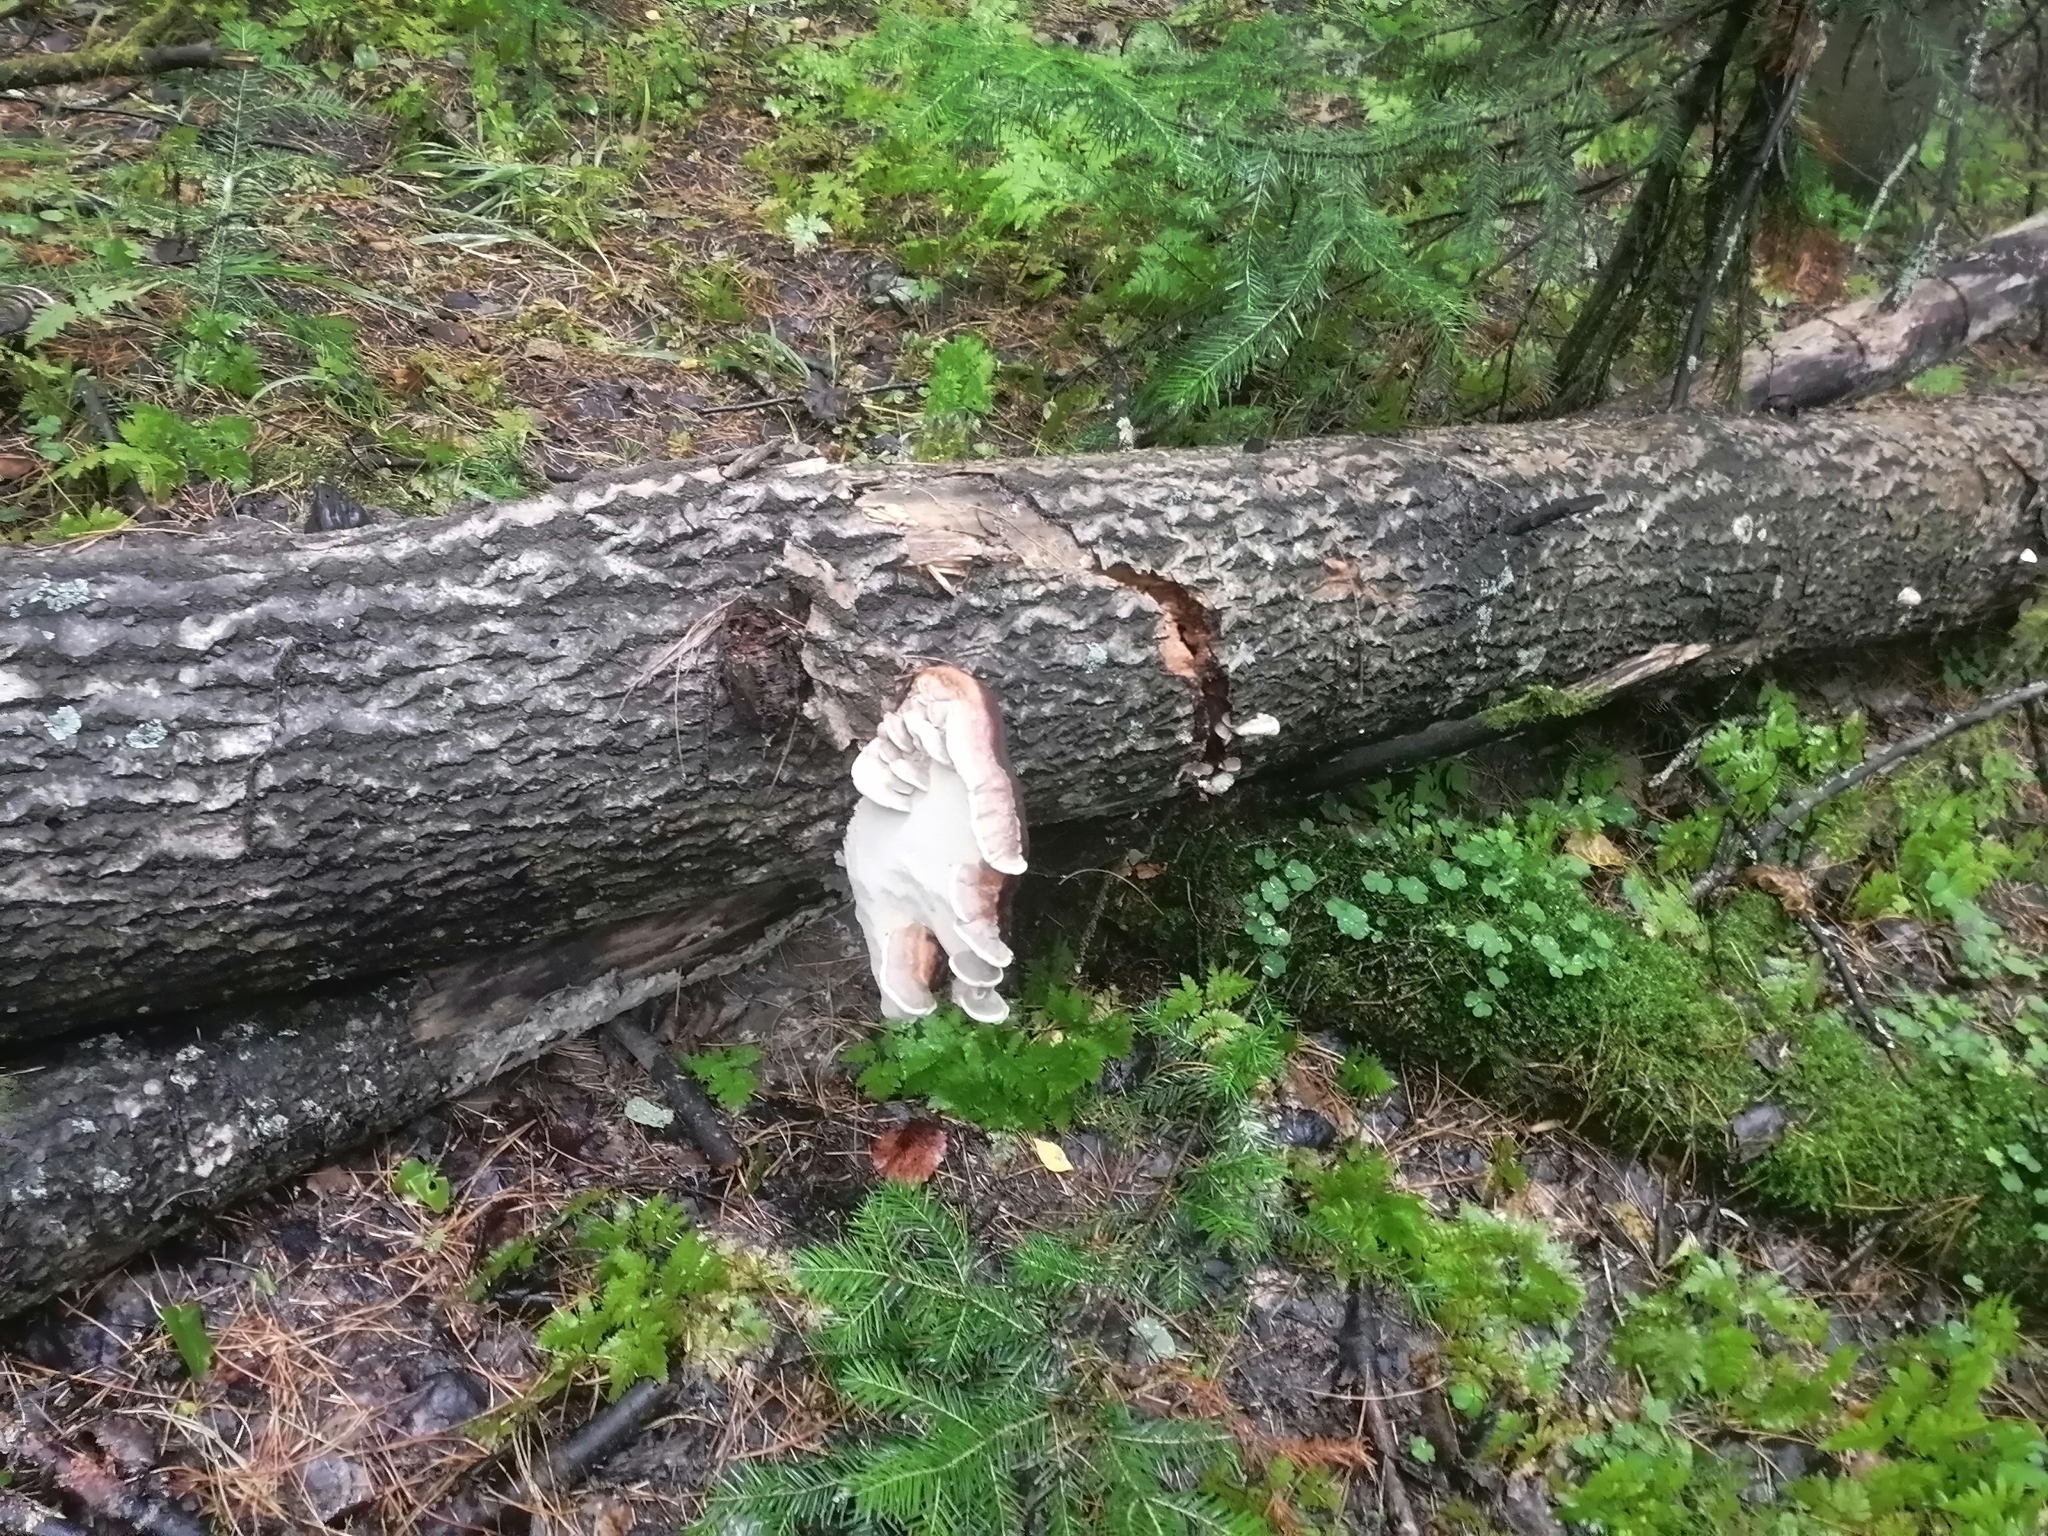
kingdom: Fungi
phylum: Basidiomycota
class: Agaricomycetes
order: Polyporales
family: Fomitopsidaceae
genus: Fomitopsis
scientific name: Fomitopsis pinicola
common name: Red-belted bracket
